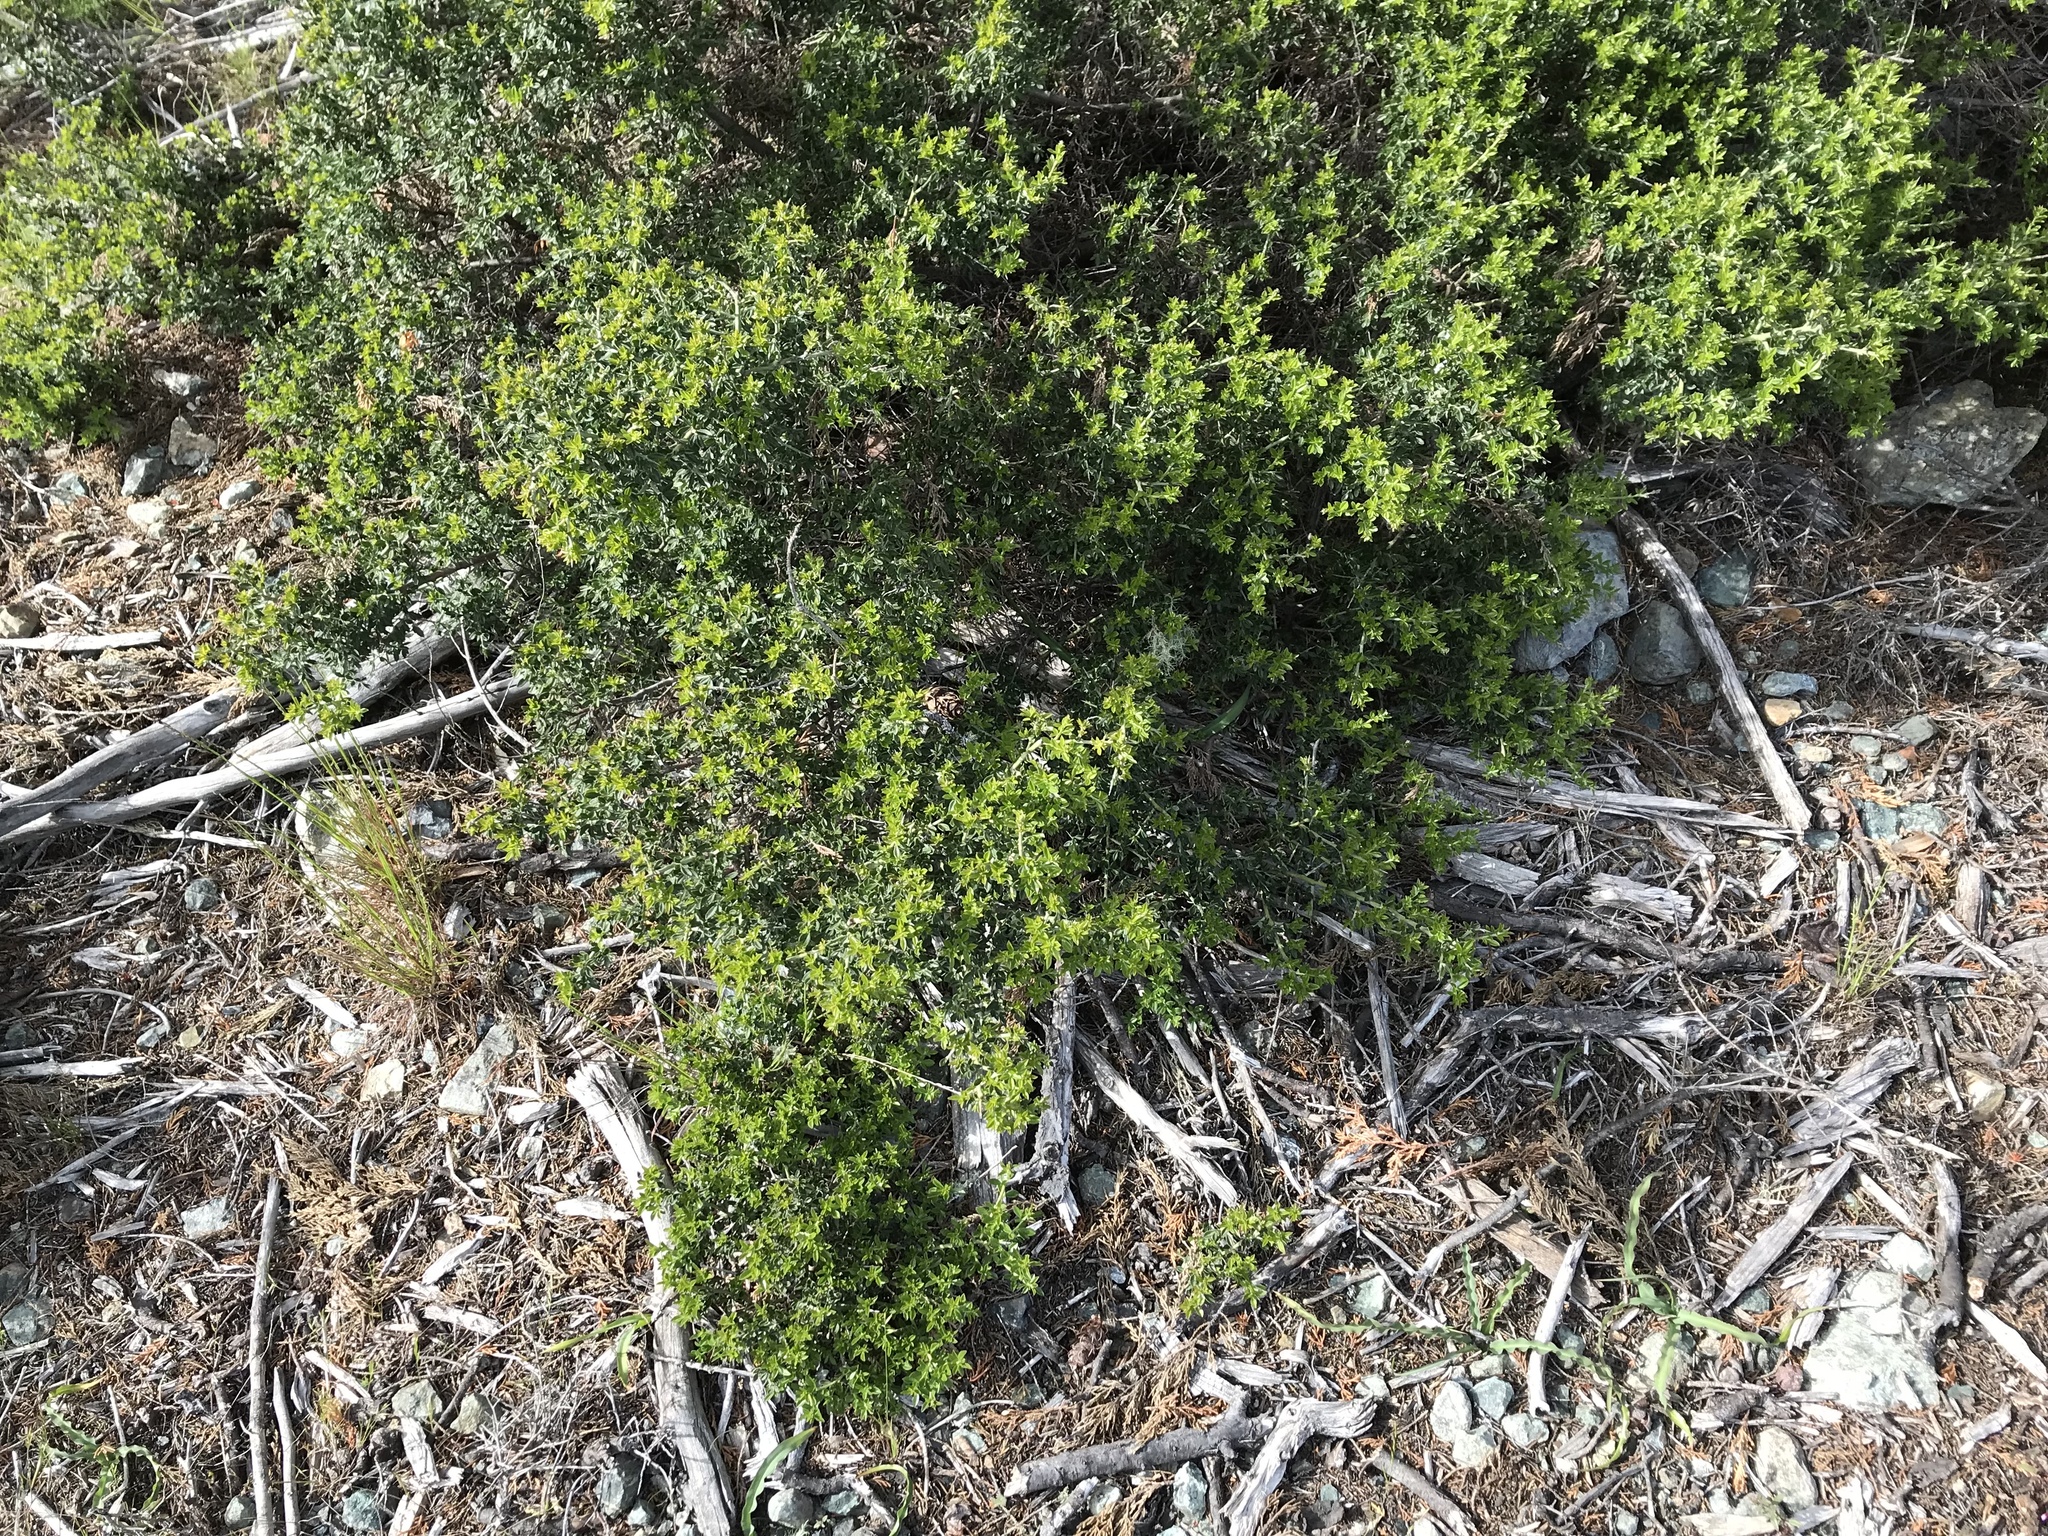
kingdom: Plantae
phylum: Tracheophyta
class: Magnoliopsida
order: Fabales
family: Fabaceae
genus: Pickeringia
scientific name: Pickeringia montana
